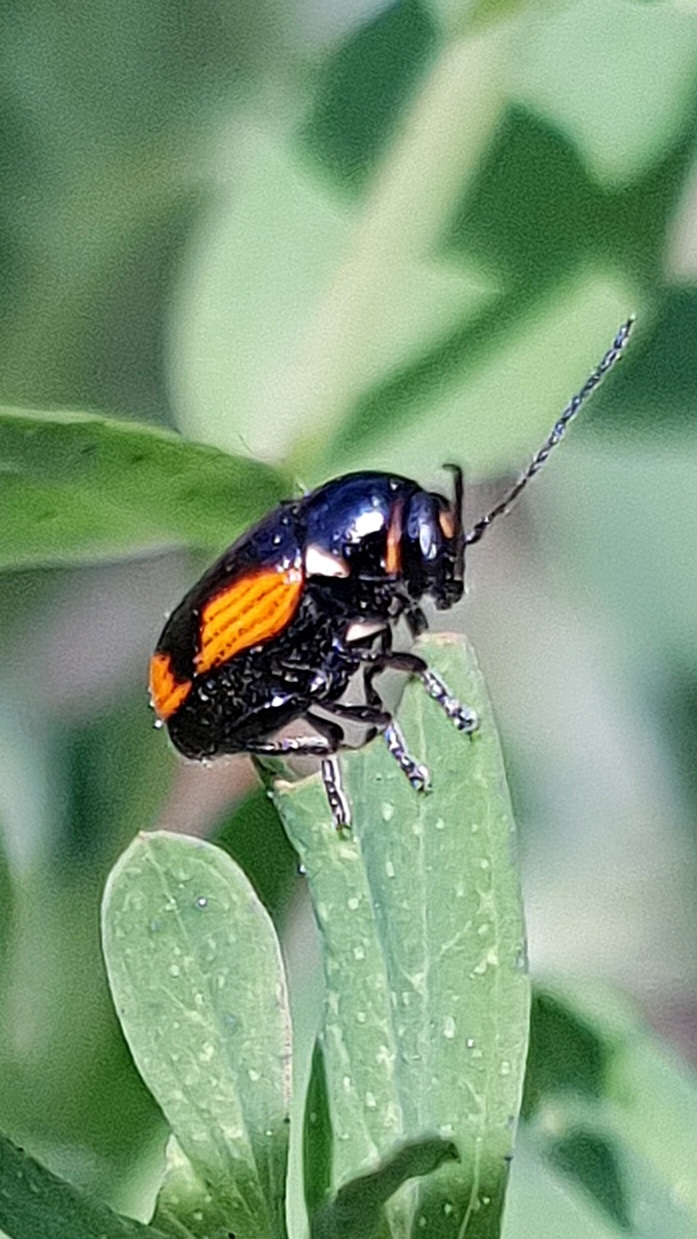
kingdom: Animalia
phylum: Arthropoda
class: Insecta
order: Coleoptera
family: Chrysomelidae
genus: Cryptocephalus
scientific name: Cryptocephalus moraei
